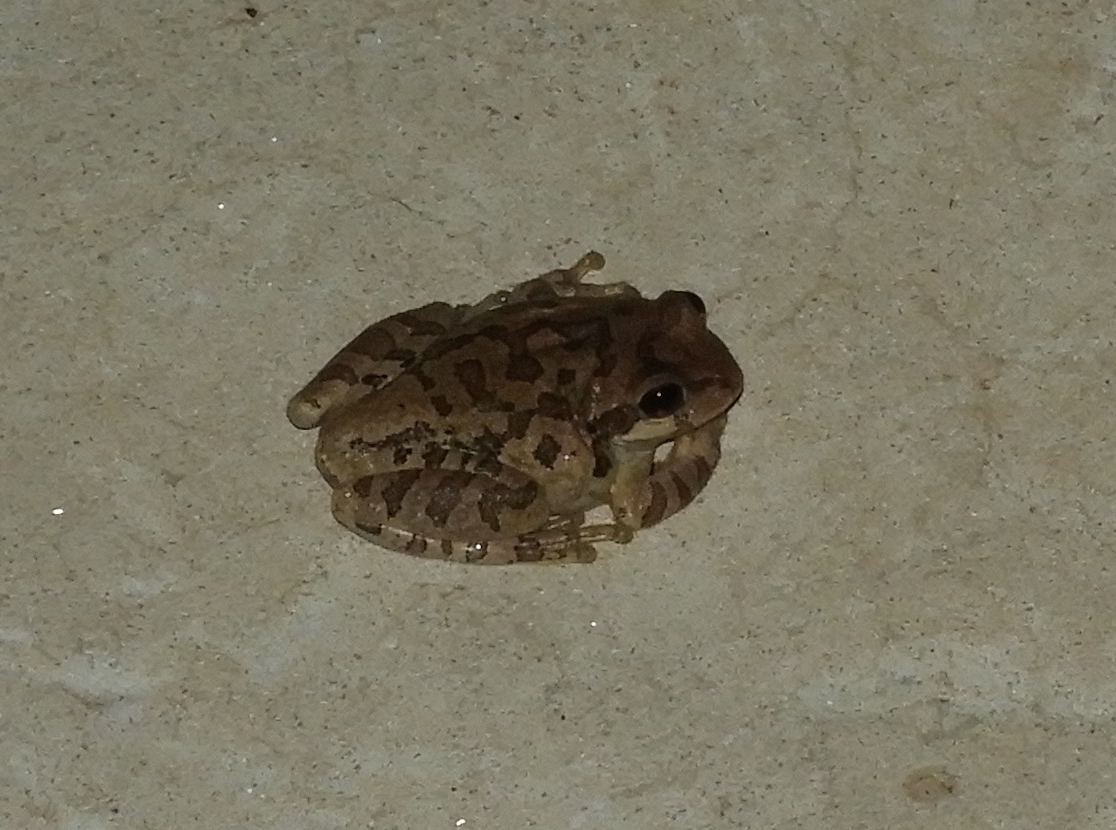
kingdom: Animalia
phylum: Chordata
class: Amphibia
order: Anura
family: Hylidae
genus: Smilisca
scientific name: Smilisca baudinii
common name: Mexican smilisca
